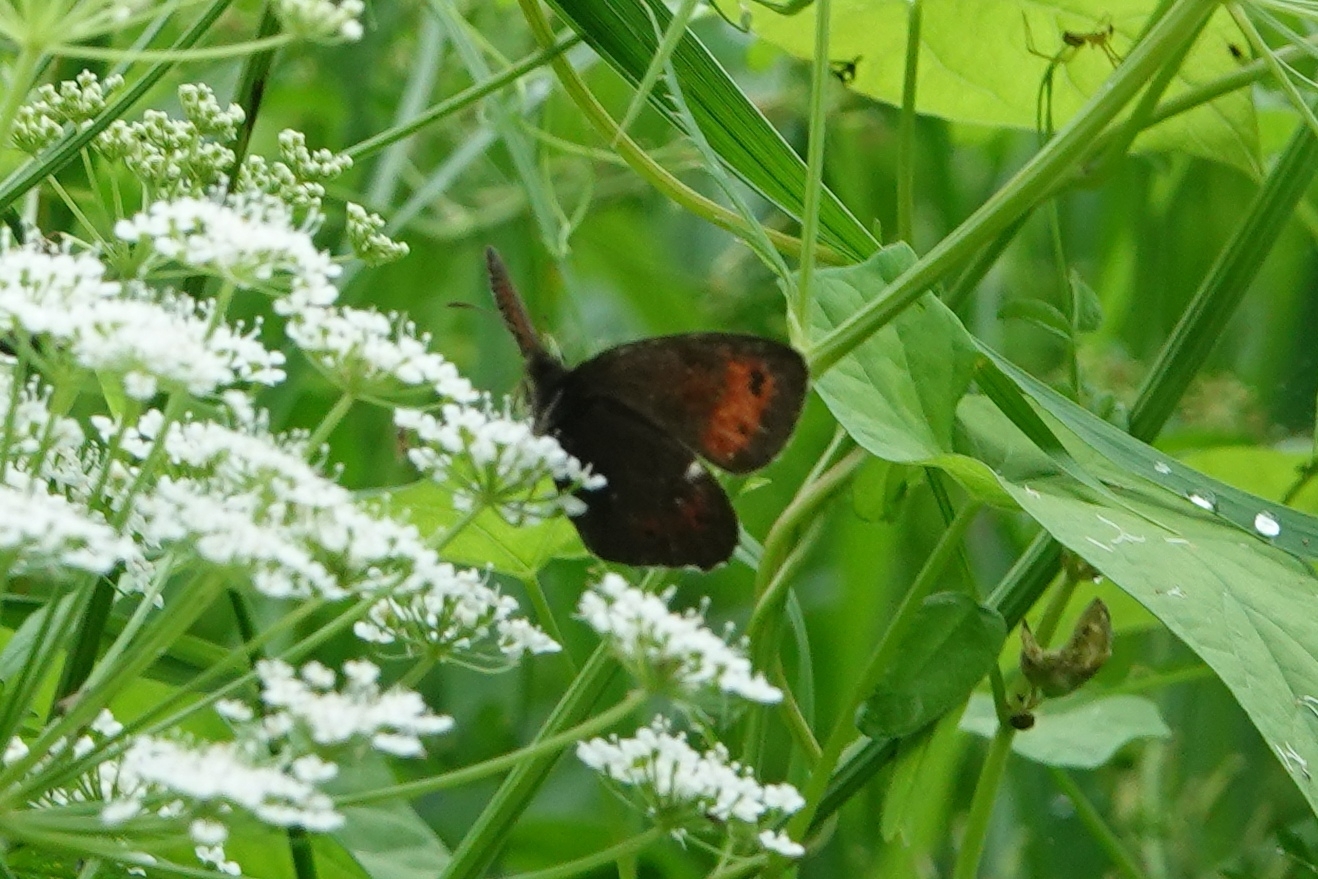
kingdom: Animalia
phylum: Arthropoda
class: Insecta
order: Lepidoptera
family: Nymphalidae
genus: Erebia
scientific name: Erebia ligea
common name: Arran brown
